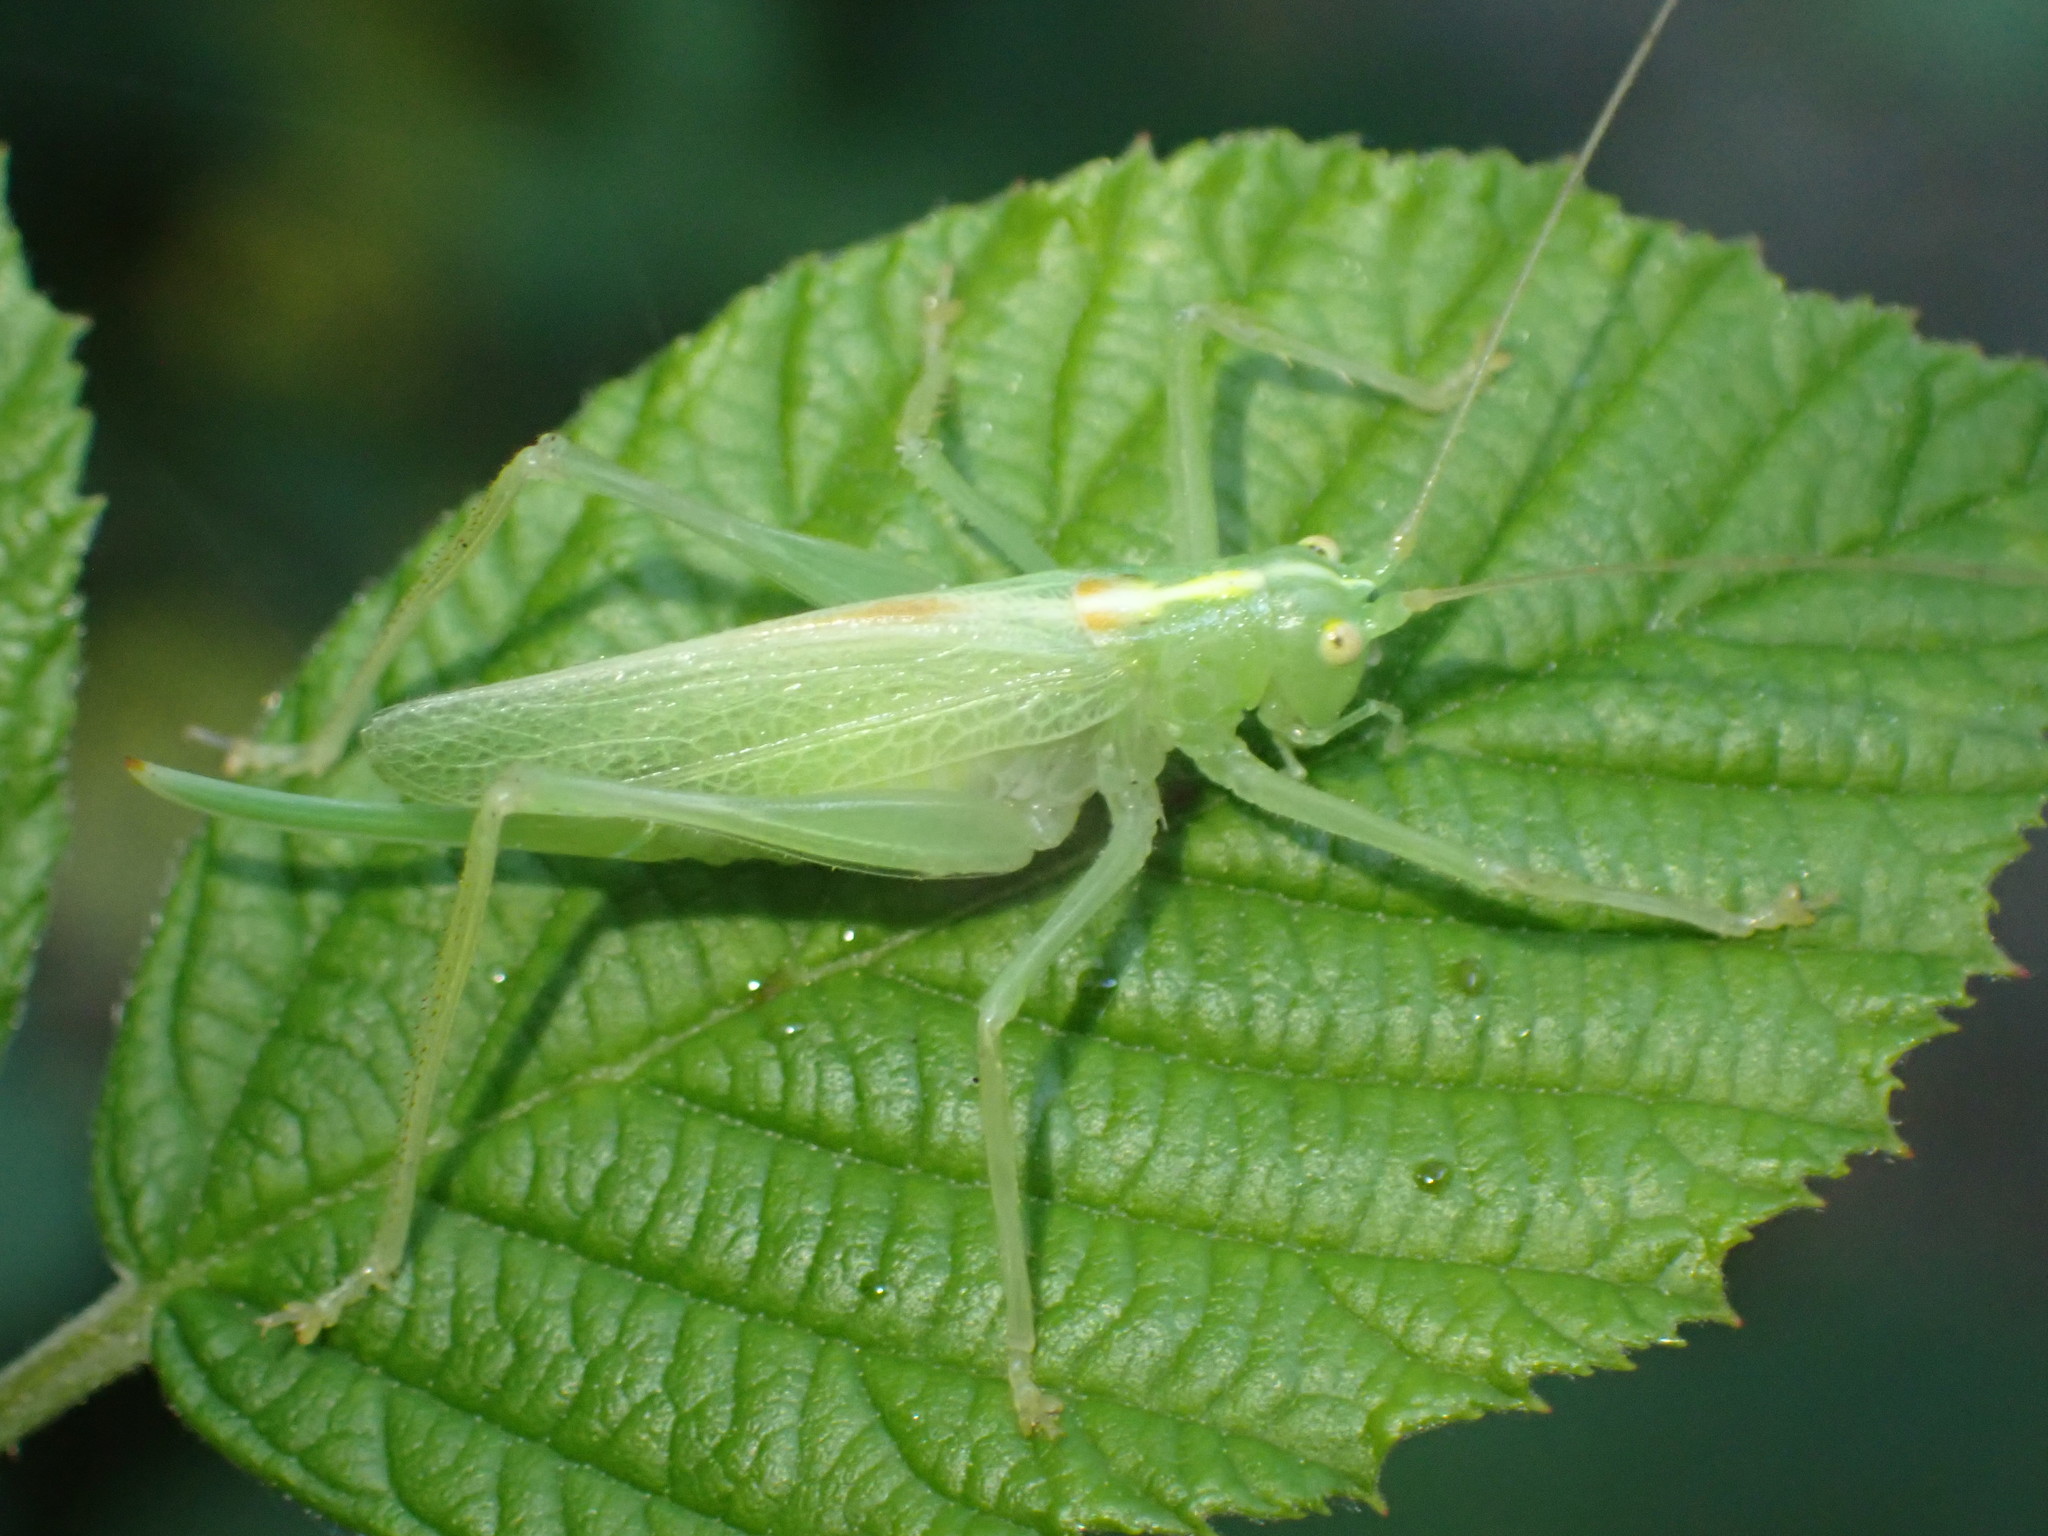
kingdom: Animalia
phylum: Arthropoda
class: Insecta
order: Orthoptera
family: Tettigoniidae
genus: Meconema
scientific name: Meconema thalassinum
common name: Oak bush-cricket
